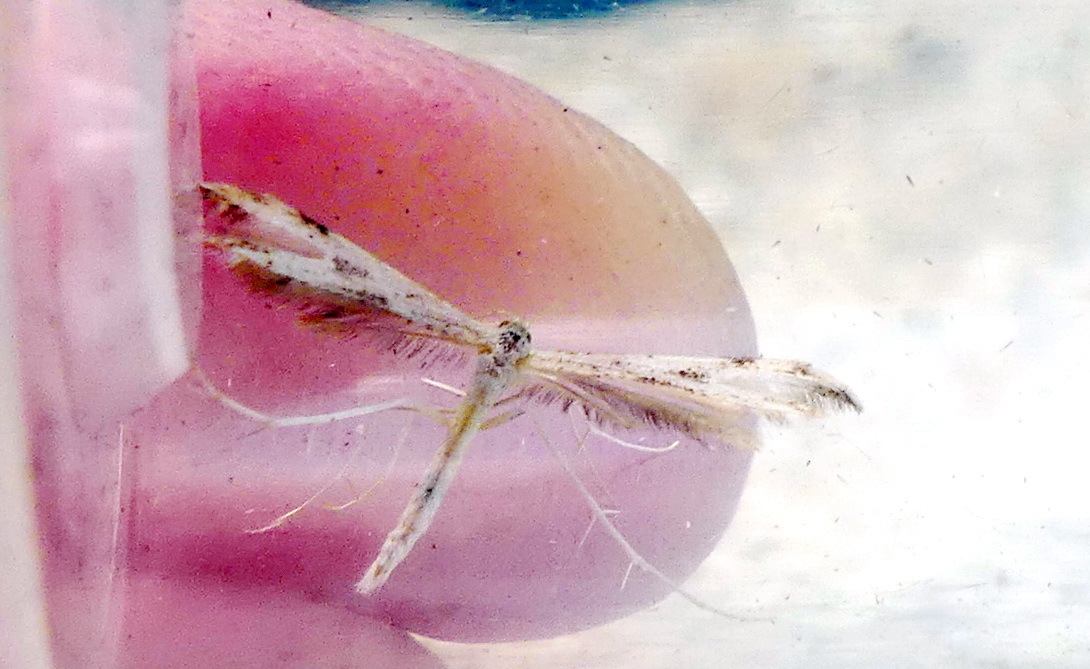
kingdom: Animalia
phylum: Arthropoda
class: Insecta
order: Lepidoptera
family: Pterophoridae
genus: Adaina
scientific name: Adaina montanus
